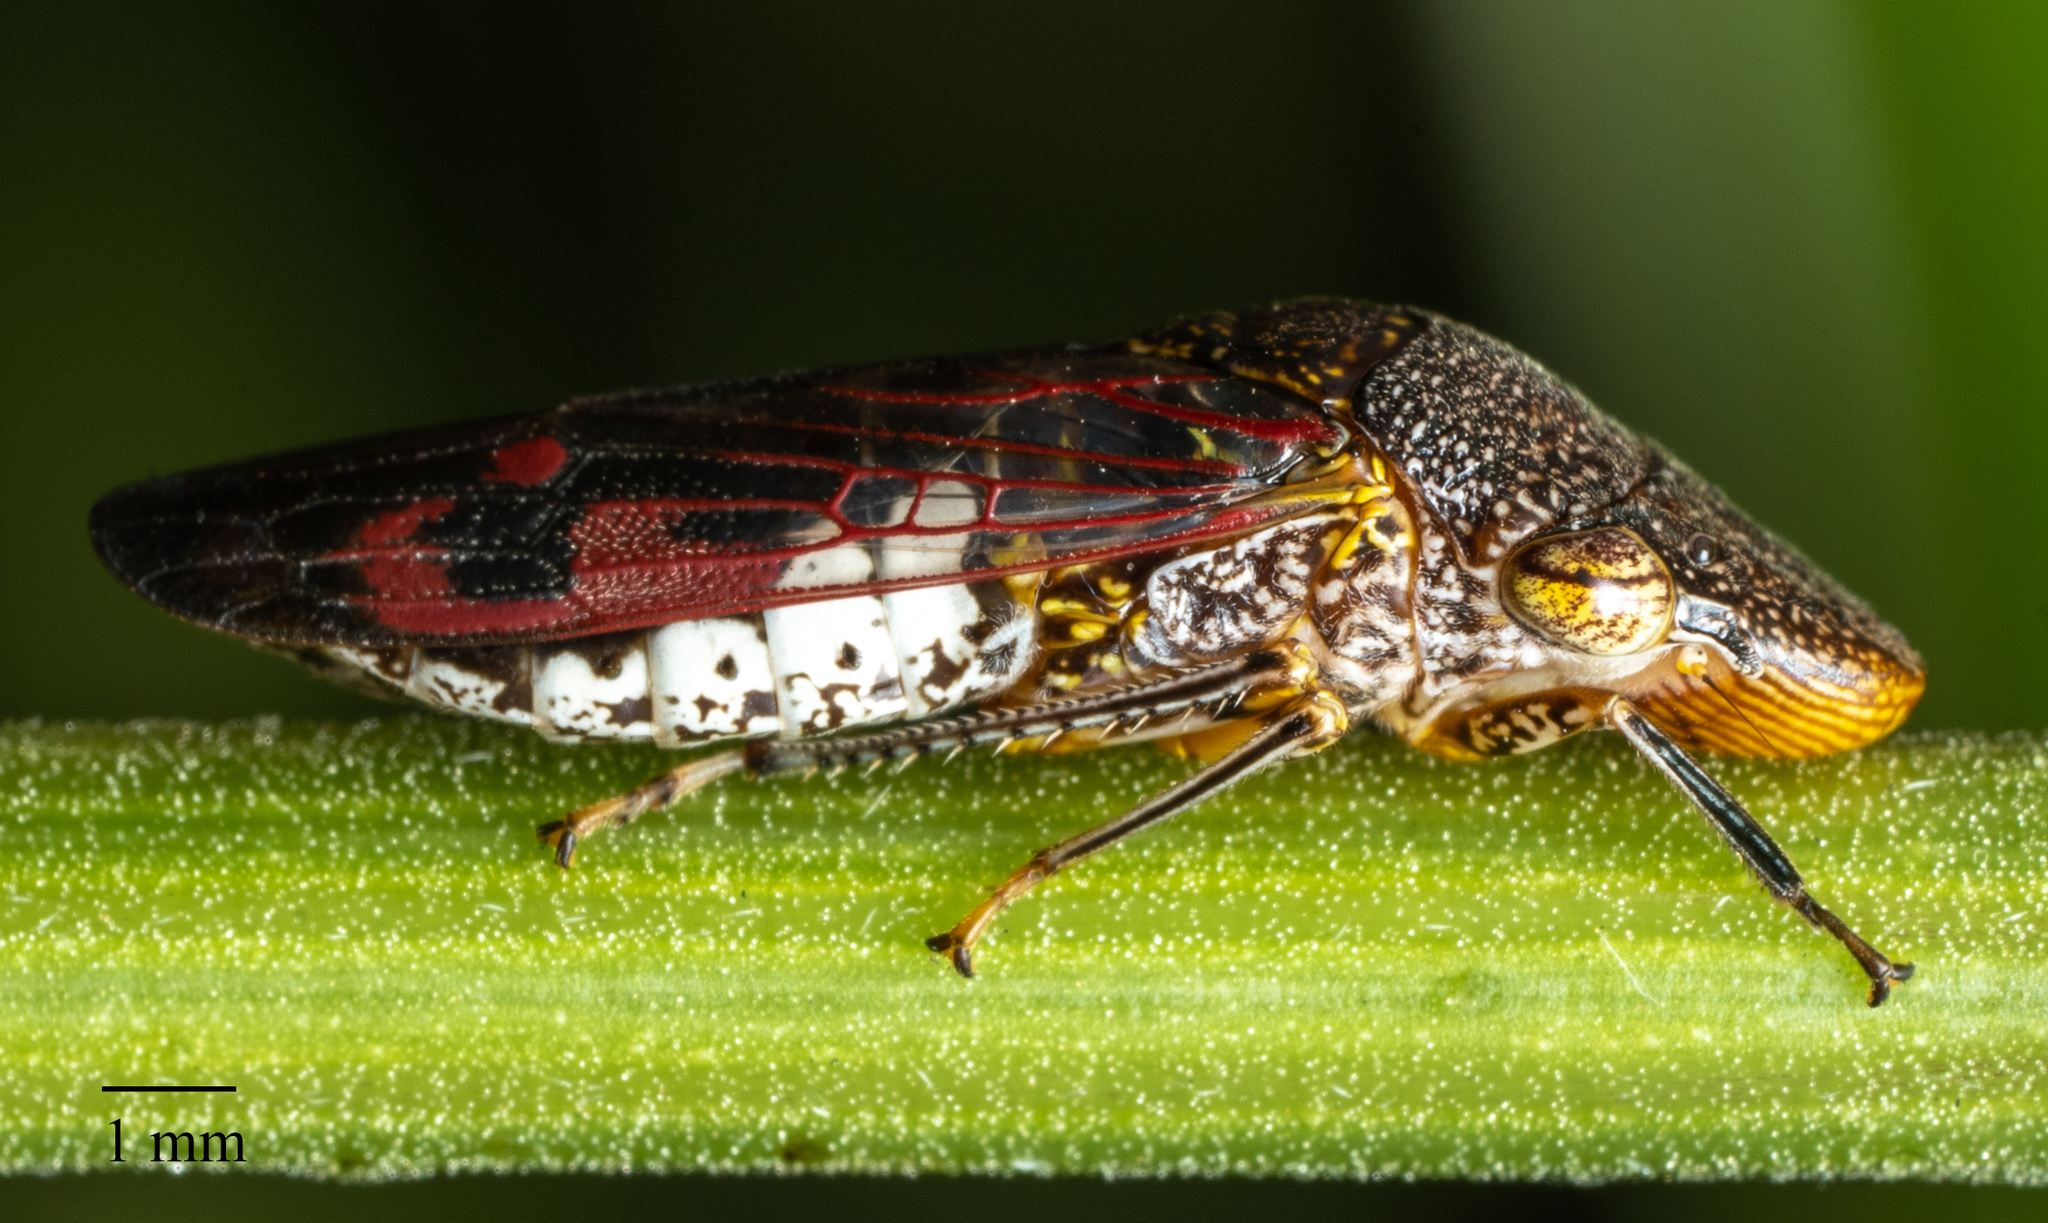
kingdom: Animalia
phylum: Arthropoda
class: Insecta
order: Hemiptera
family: Cicadellidae
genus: Homalodisca
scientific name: Homalodisca vitripennis
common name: Glassy-winged sharpshooter
